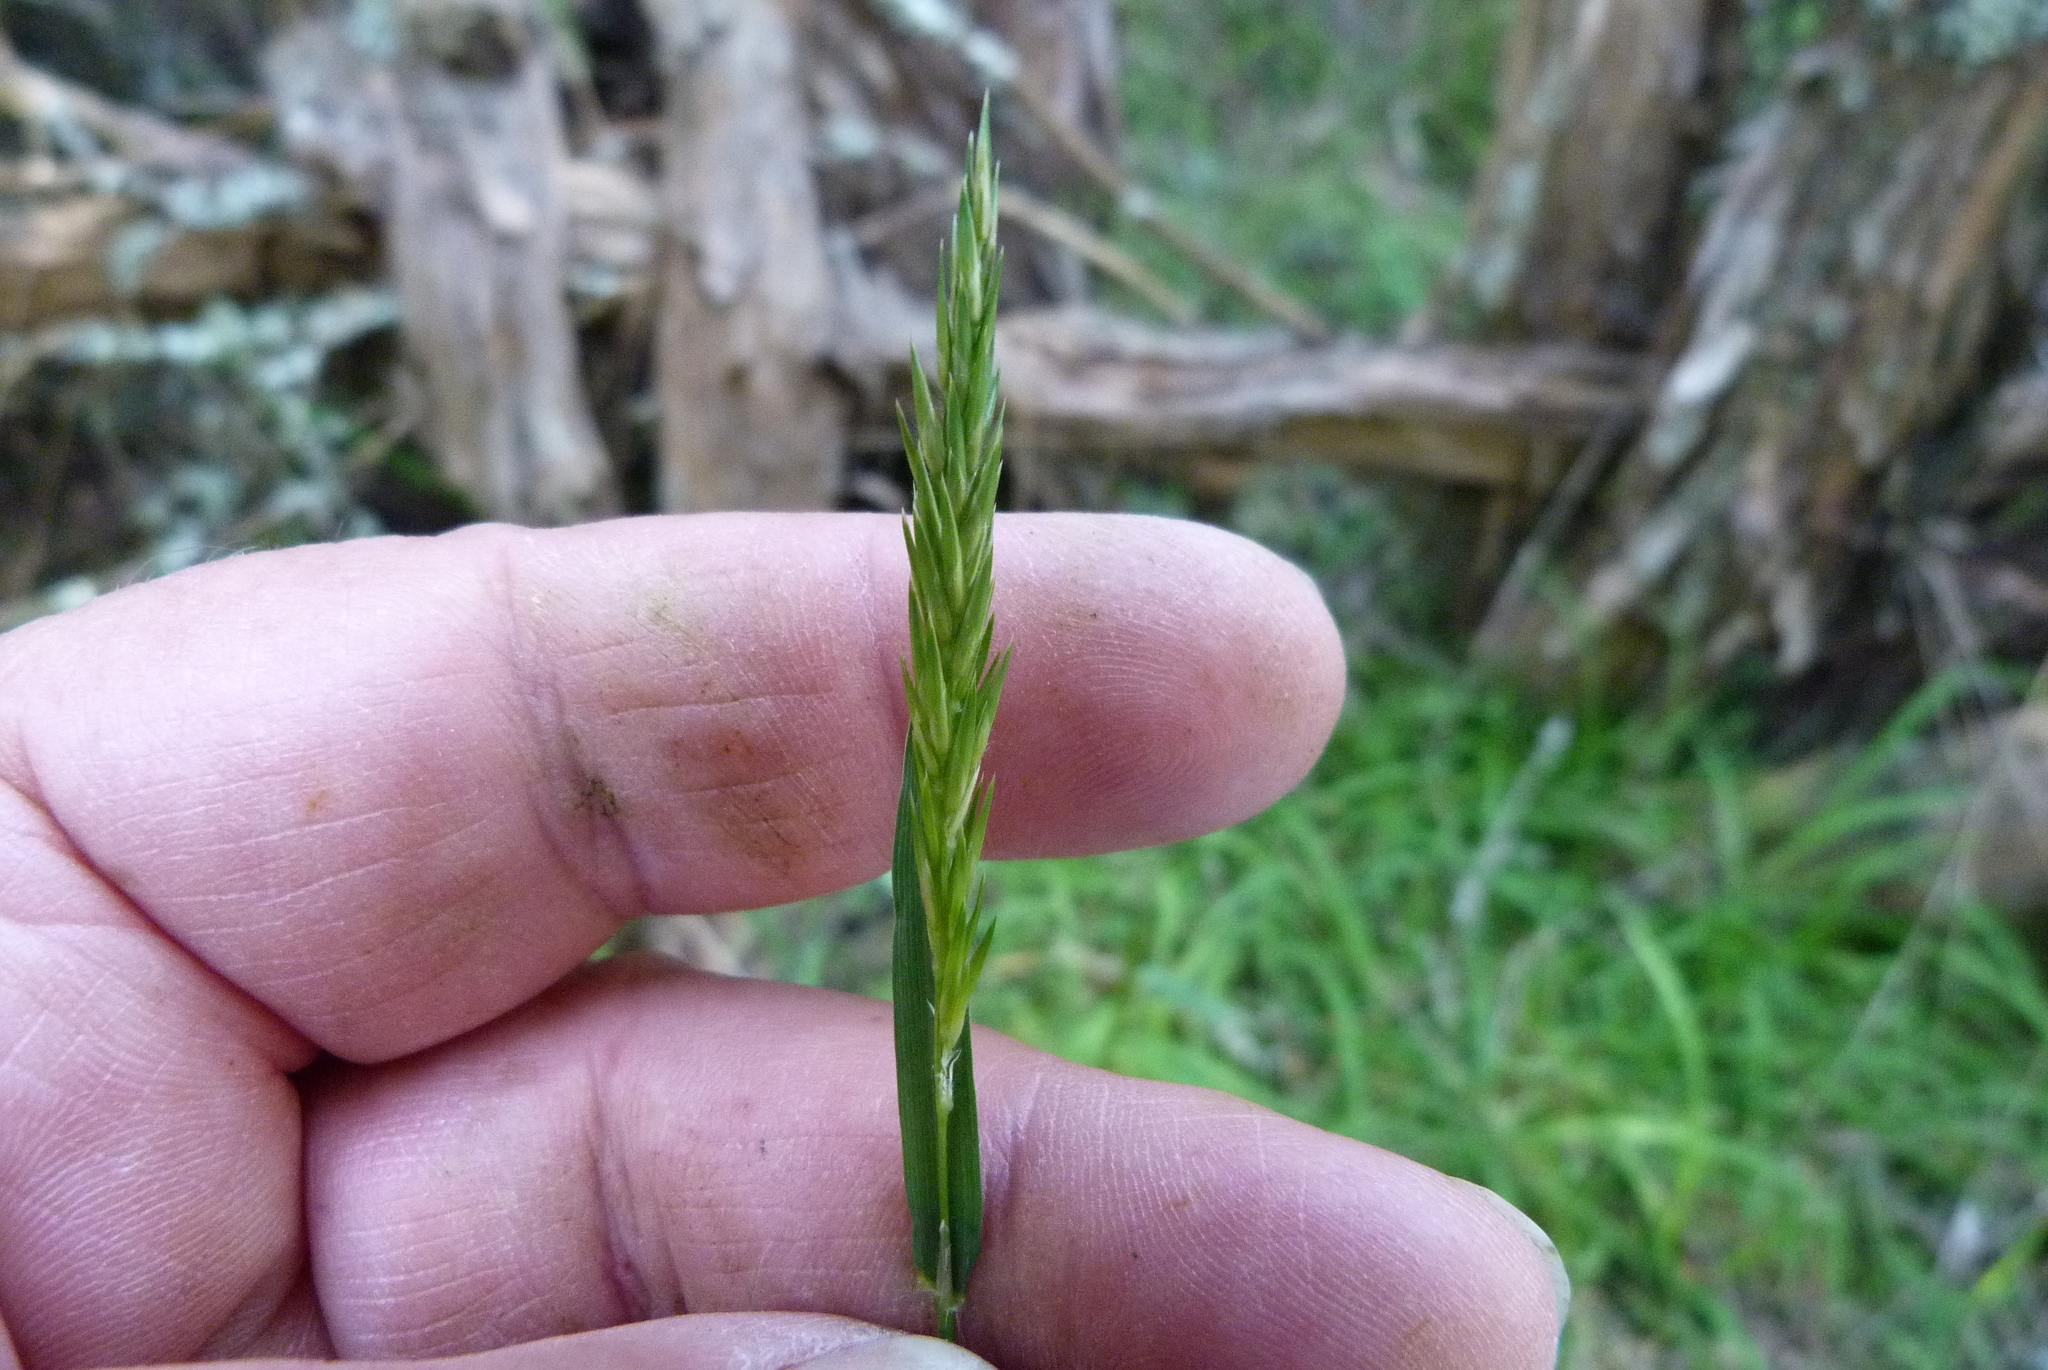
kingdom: Plantae
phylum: Tracheophyta
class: Liliopsida
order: Poales
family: Poaceae
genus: Anthoxanthum
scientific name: Anthoxanthum odoratum
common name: Sweet vernalgrass
